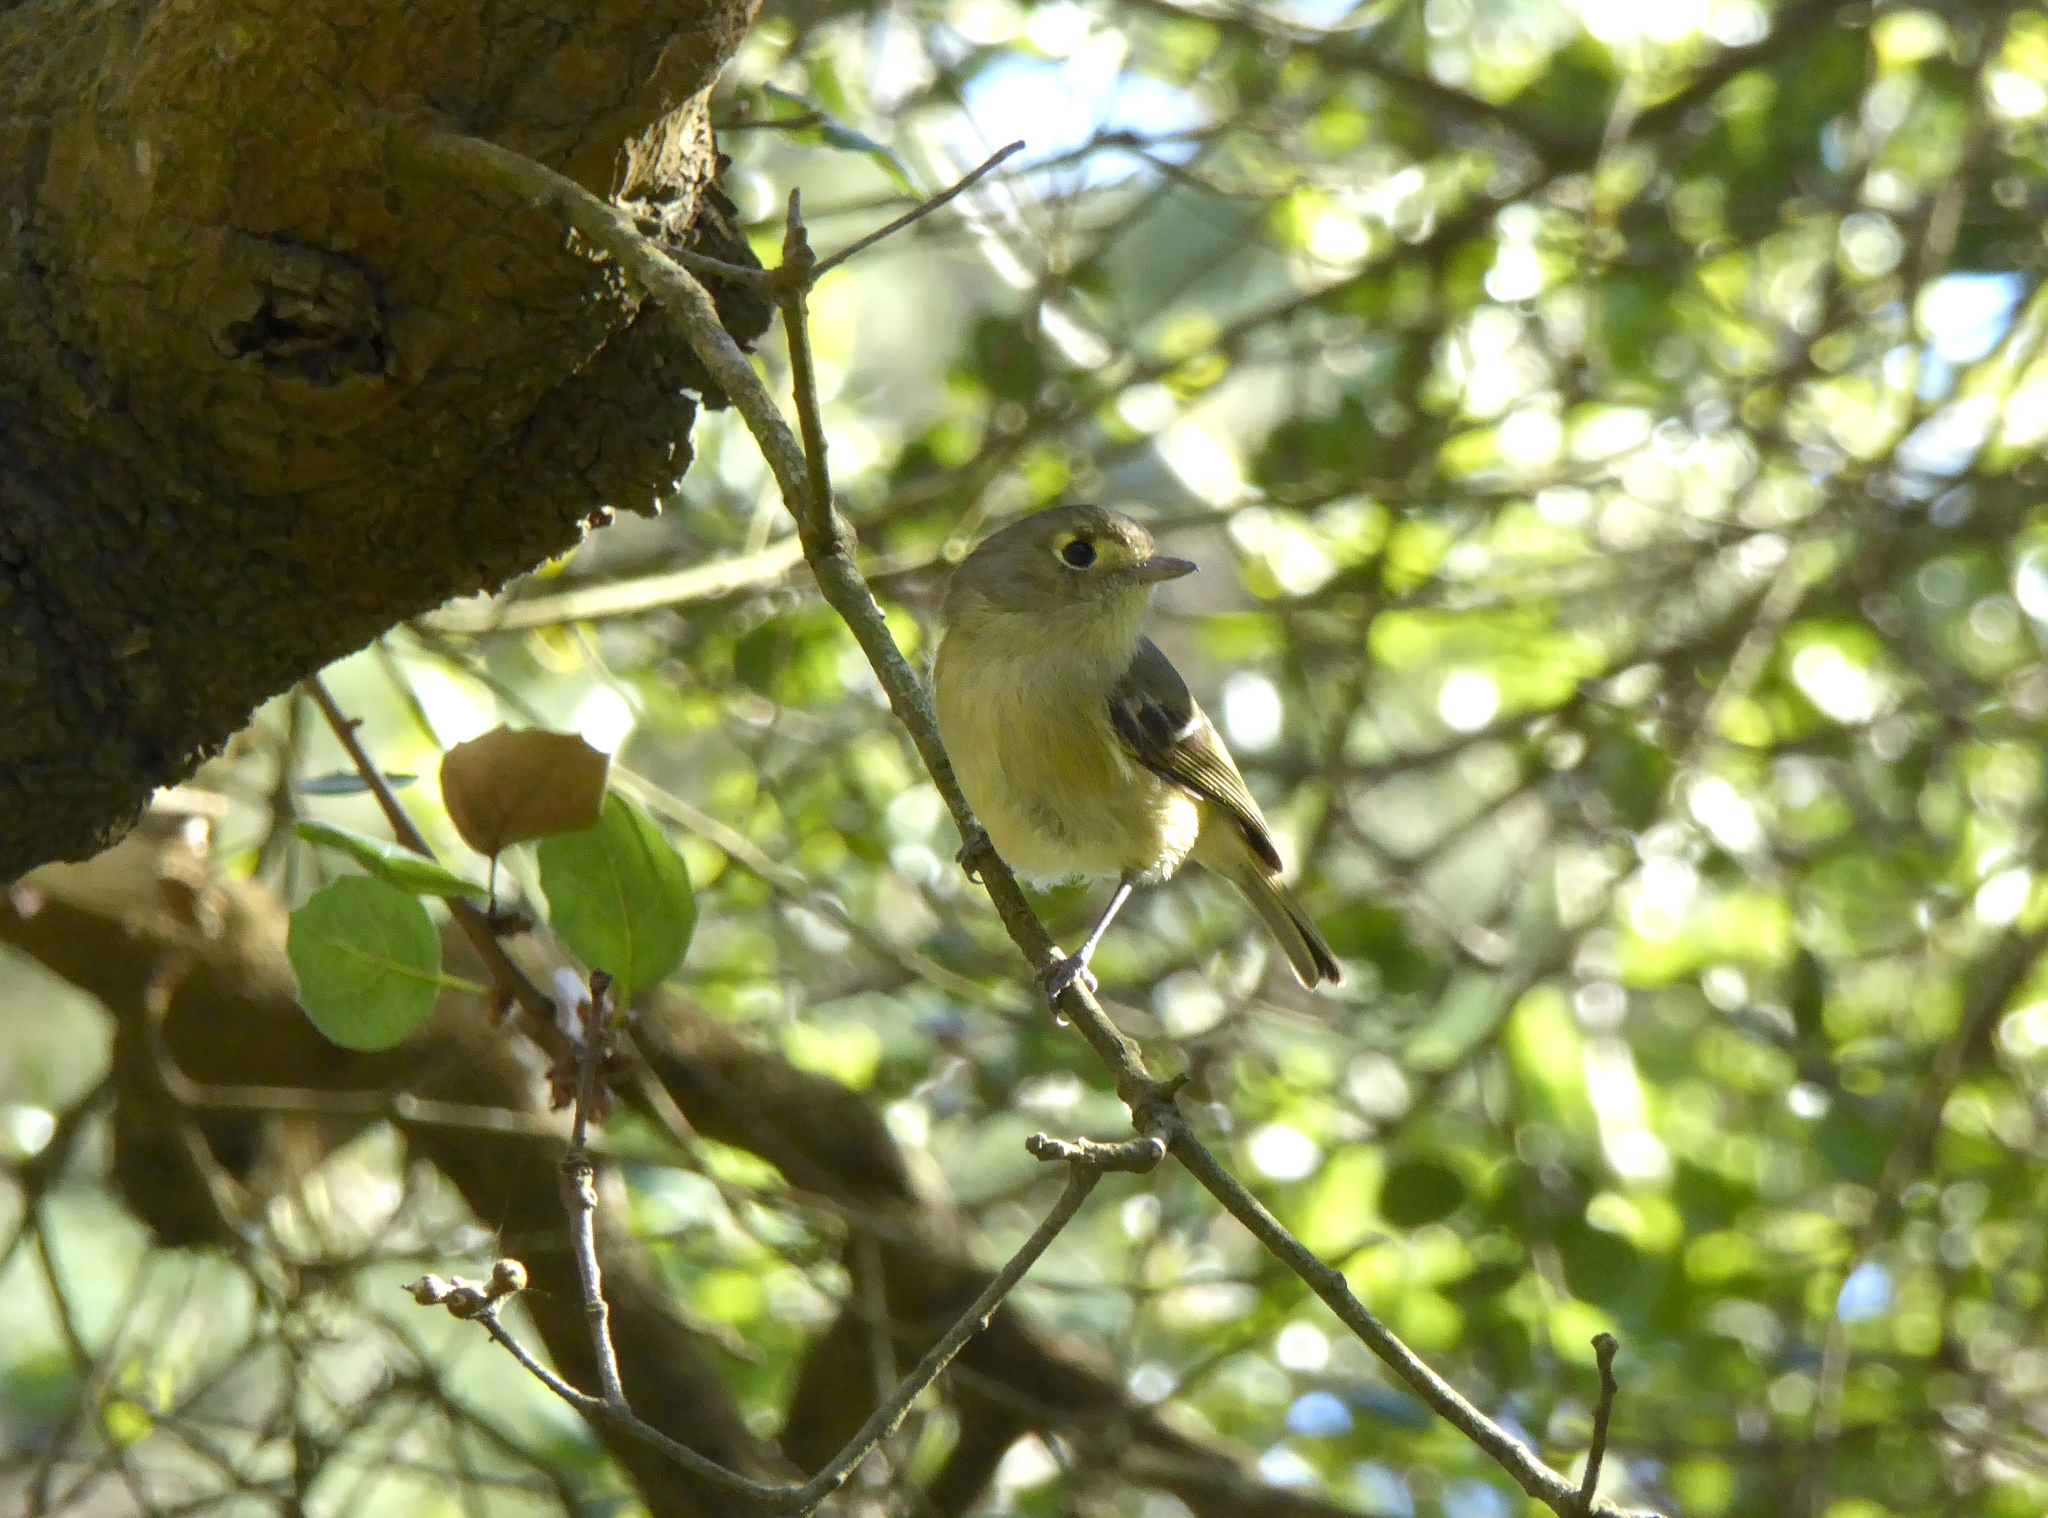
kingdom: Animalia
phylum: Chordata
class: Aves
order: Passeriformes
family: Vireonidae
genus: Vireo
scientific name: Vireo huttoni
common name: Hutton's vireo
